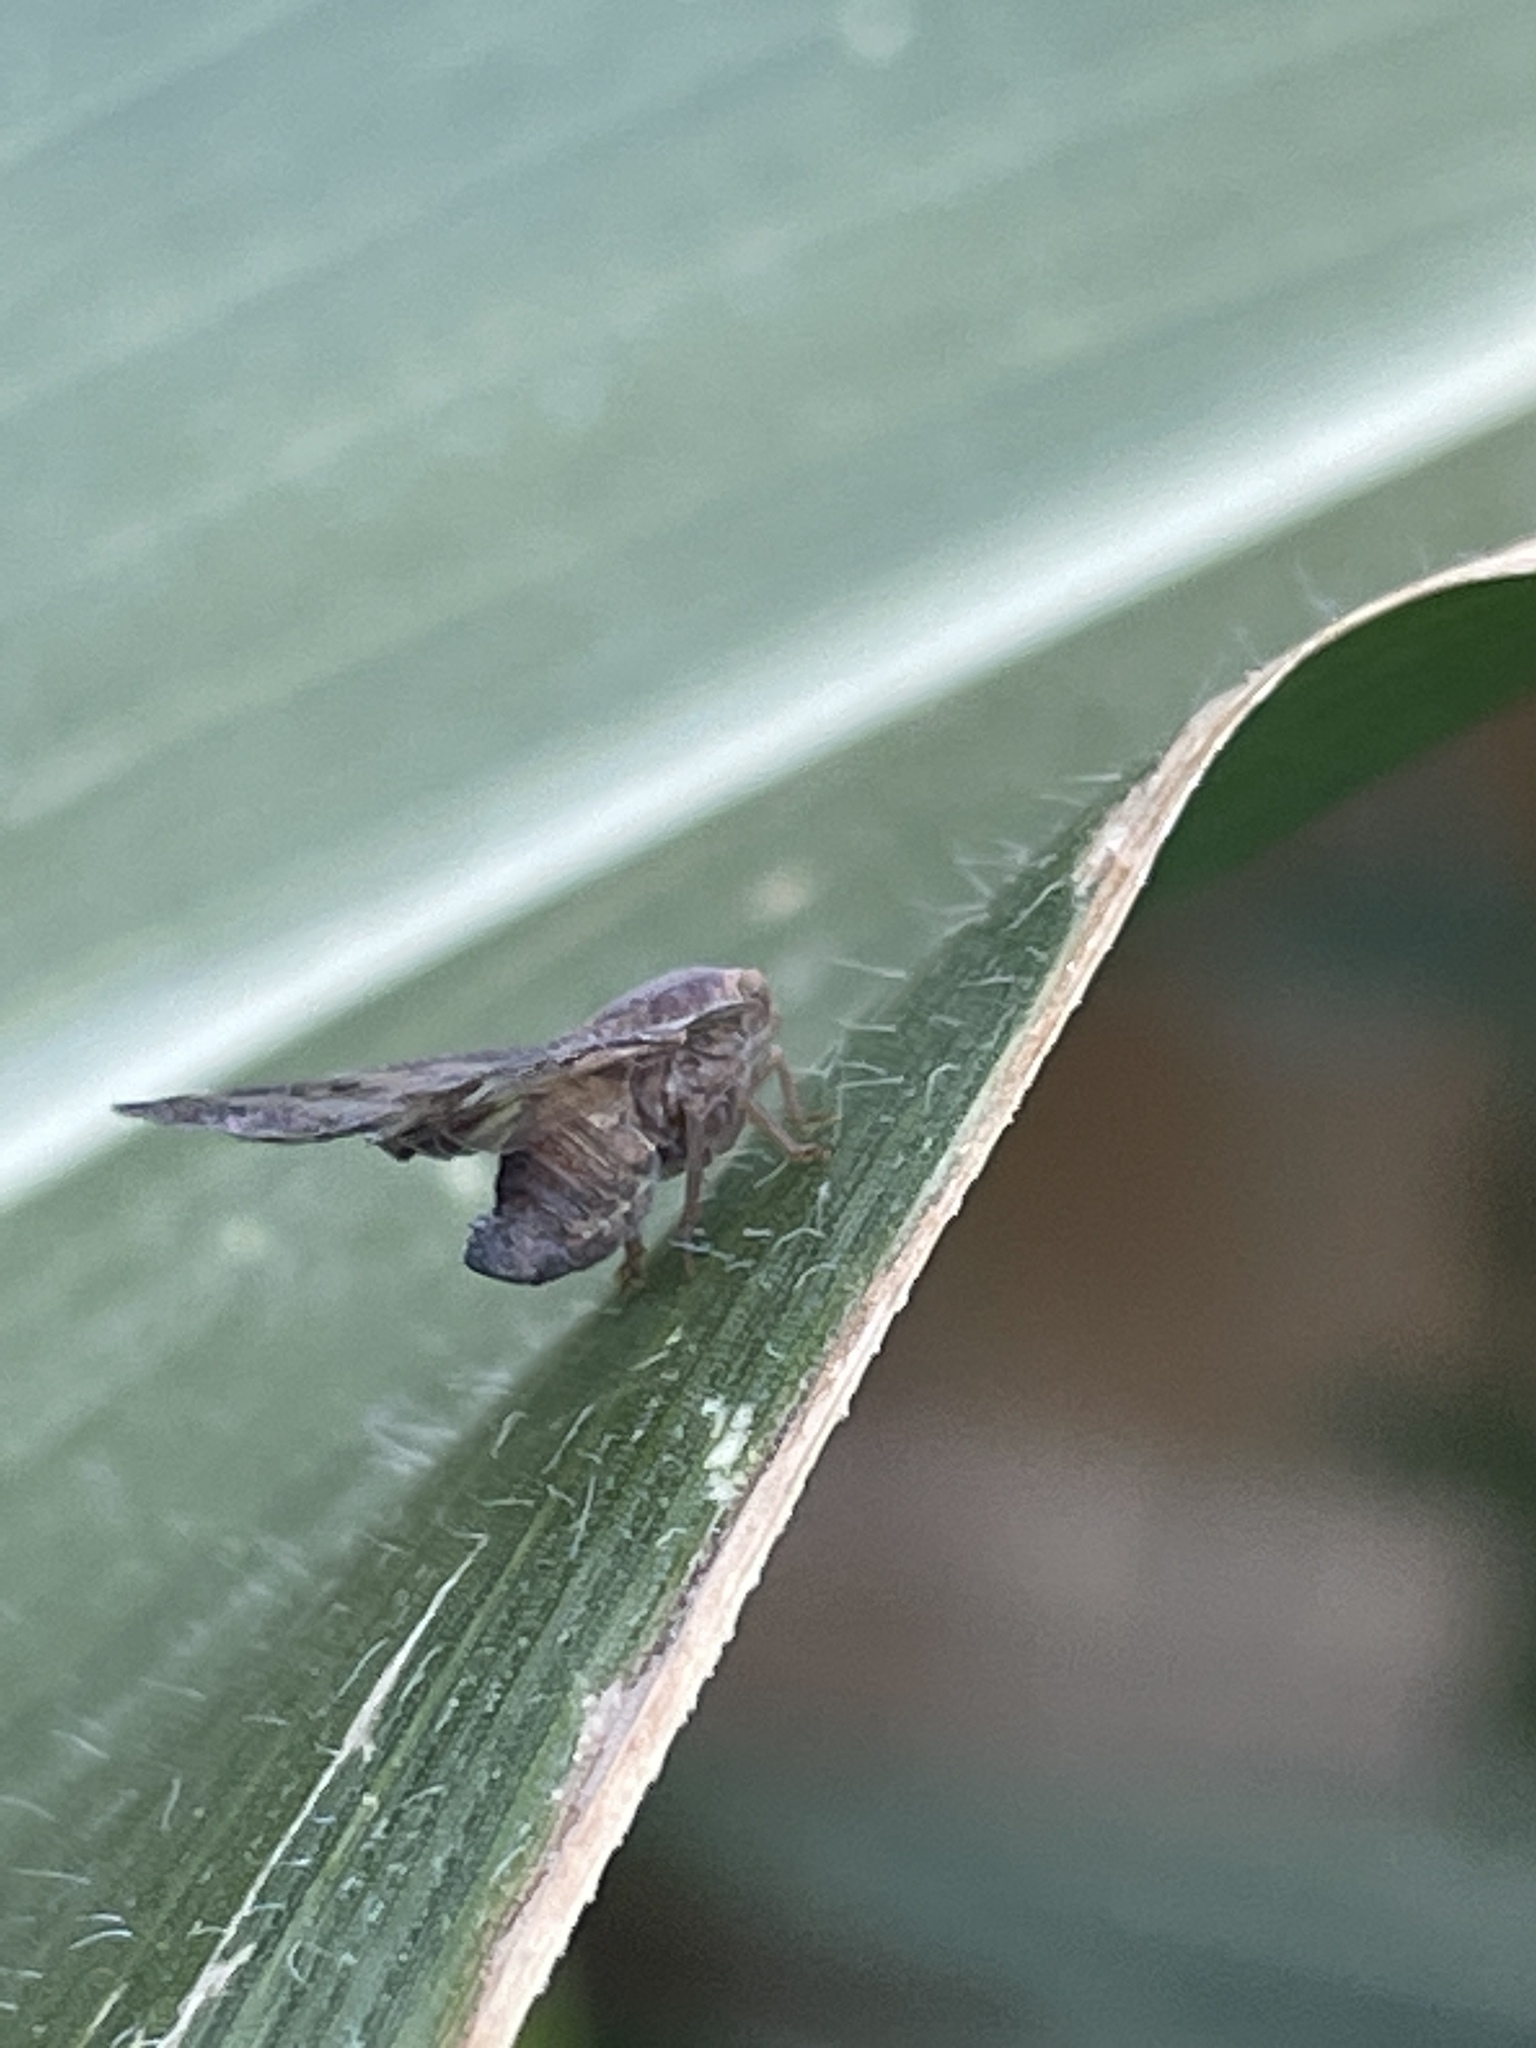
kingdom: Animalia
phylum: Arthropoda
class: Insecta
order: Hemiptera
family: Ricaniidae
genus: Scolypopa
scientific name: Scolypopa australis
